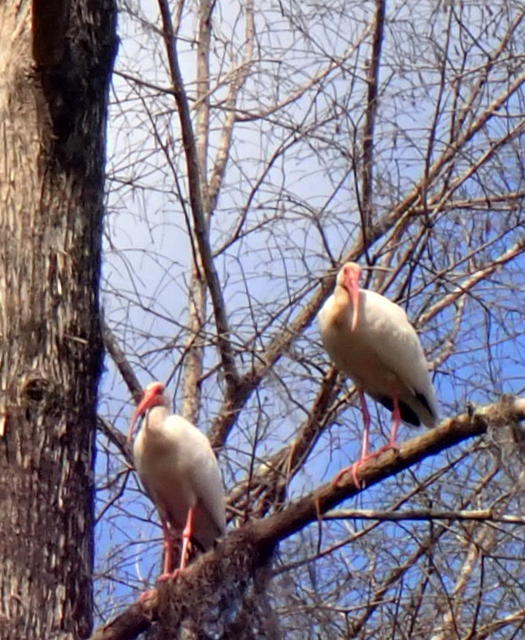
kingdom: Animalia
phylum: Chordata
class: Aves
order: Pelecaniformes
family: Threskiornithidae
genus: Eudocimus
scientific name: Eudocimus albus
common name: White ibis
